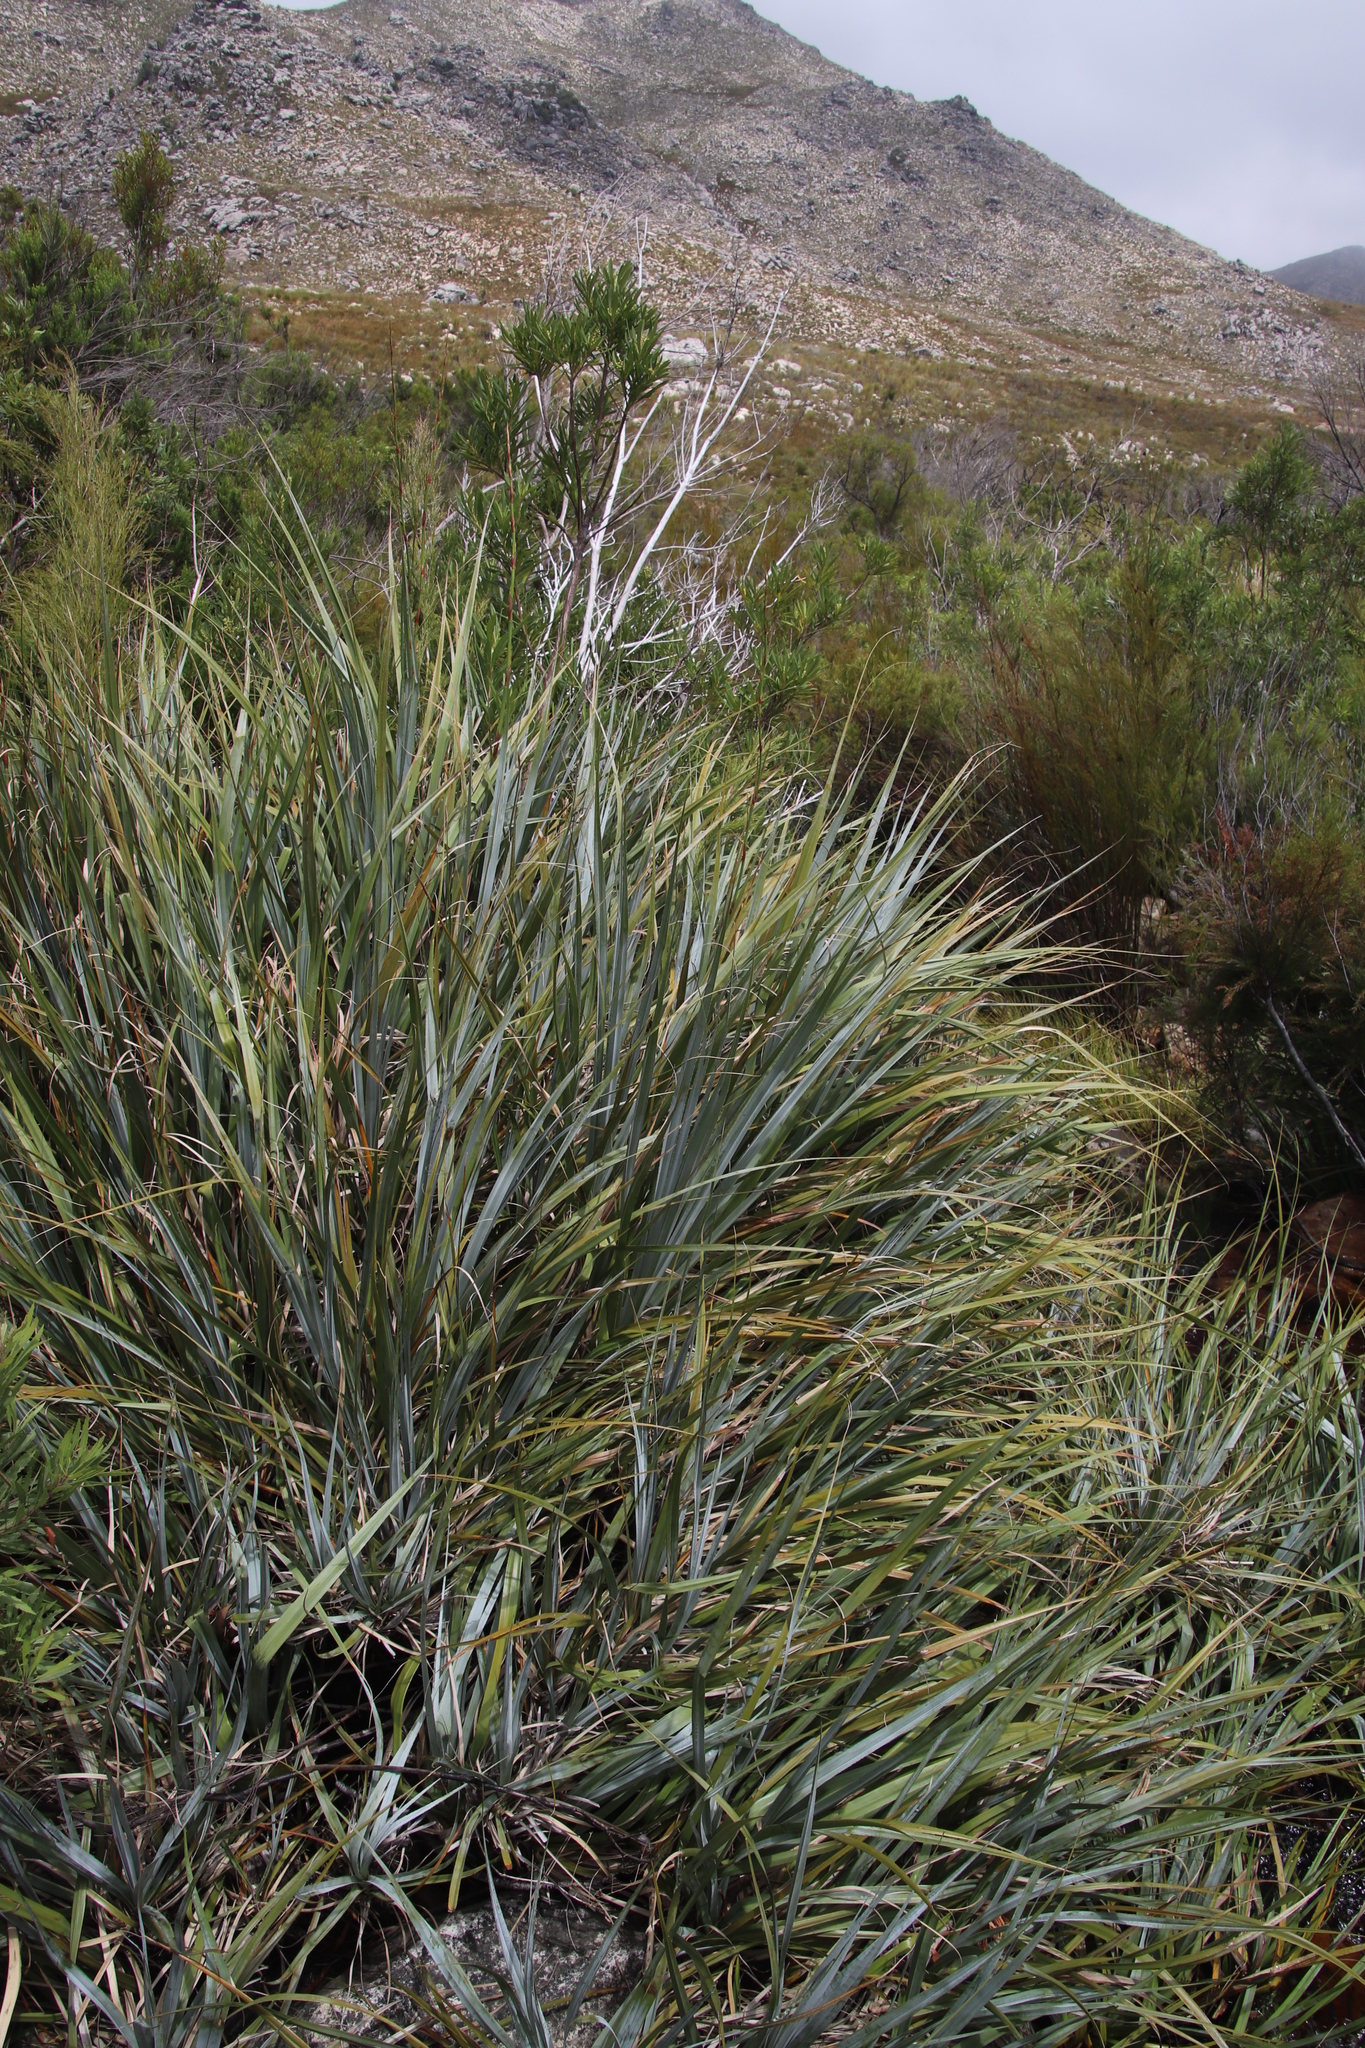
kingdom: Plantae
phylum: Tracheophyta
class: Liliopsida
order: Poales
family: Thurniaceae
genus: Prionium
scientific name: Prionium serratum
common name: Palmiet
